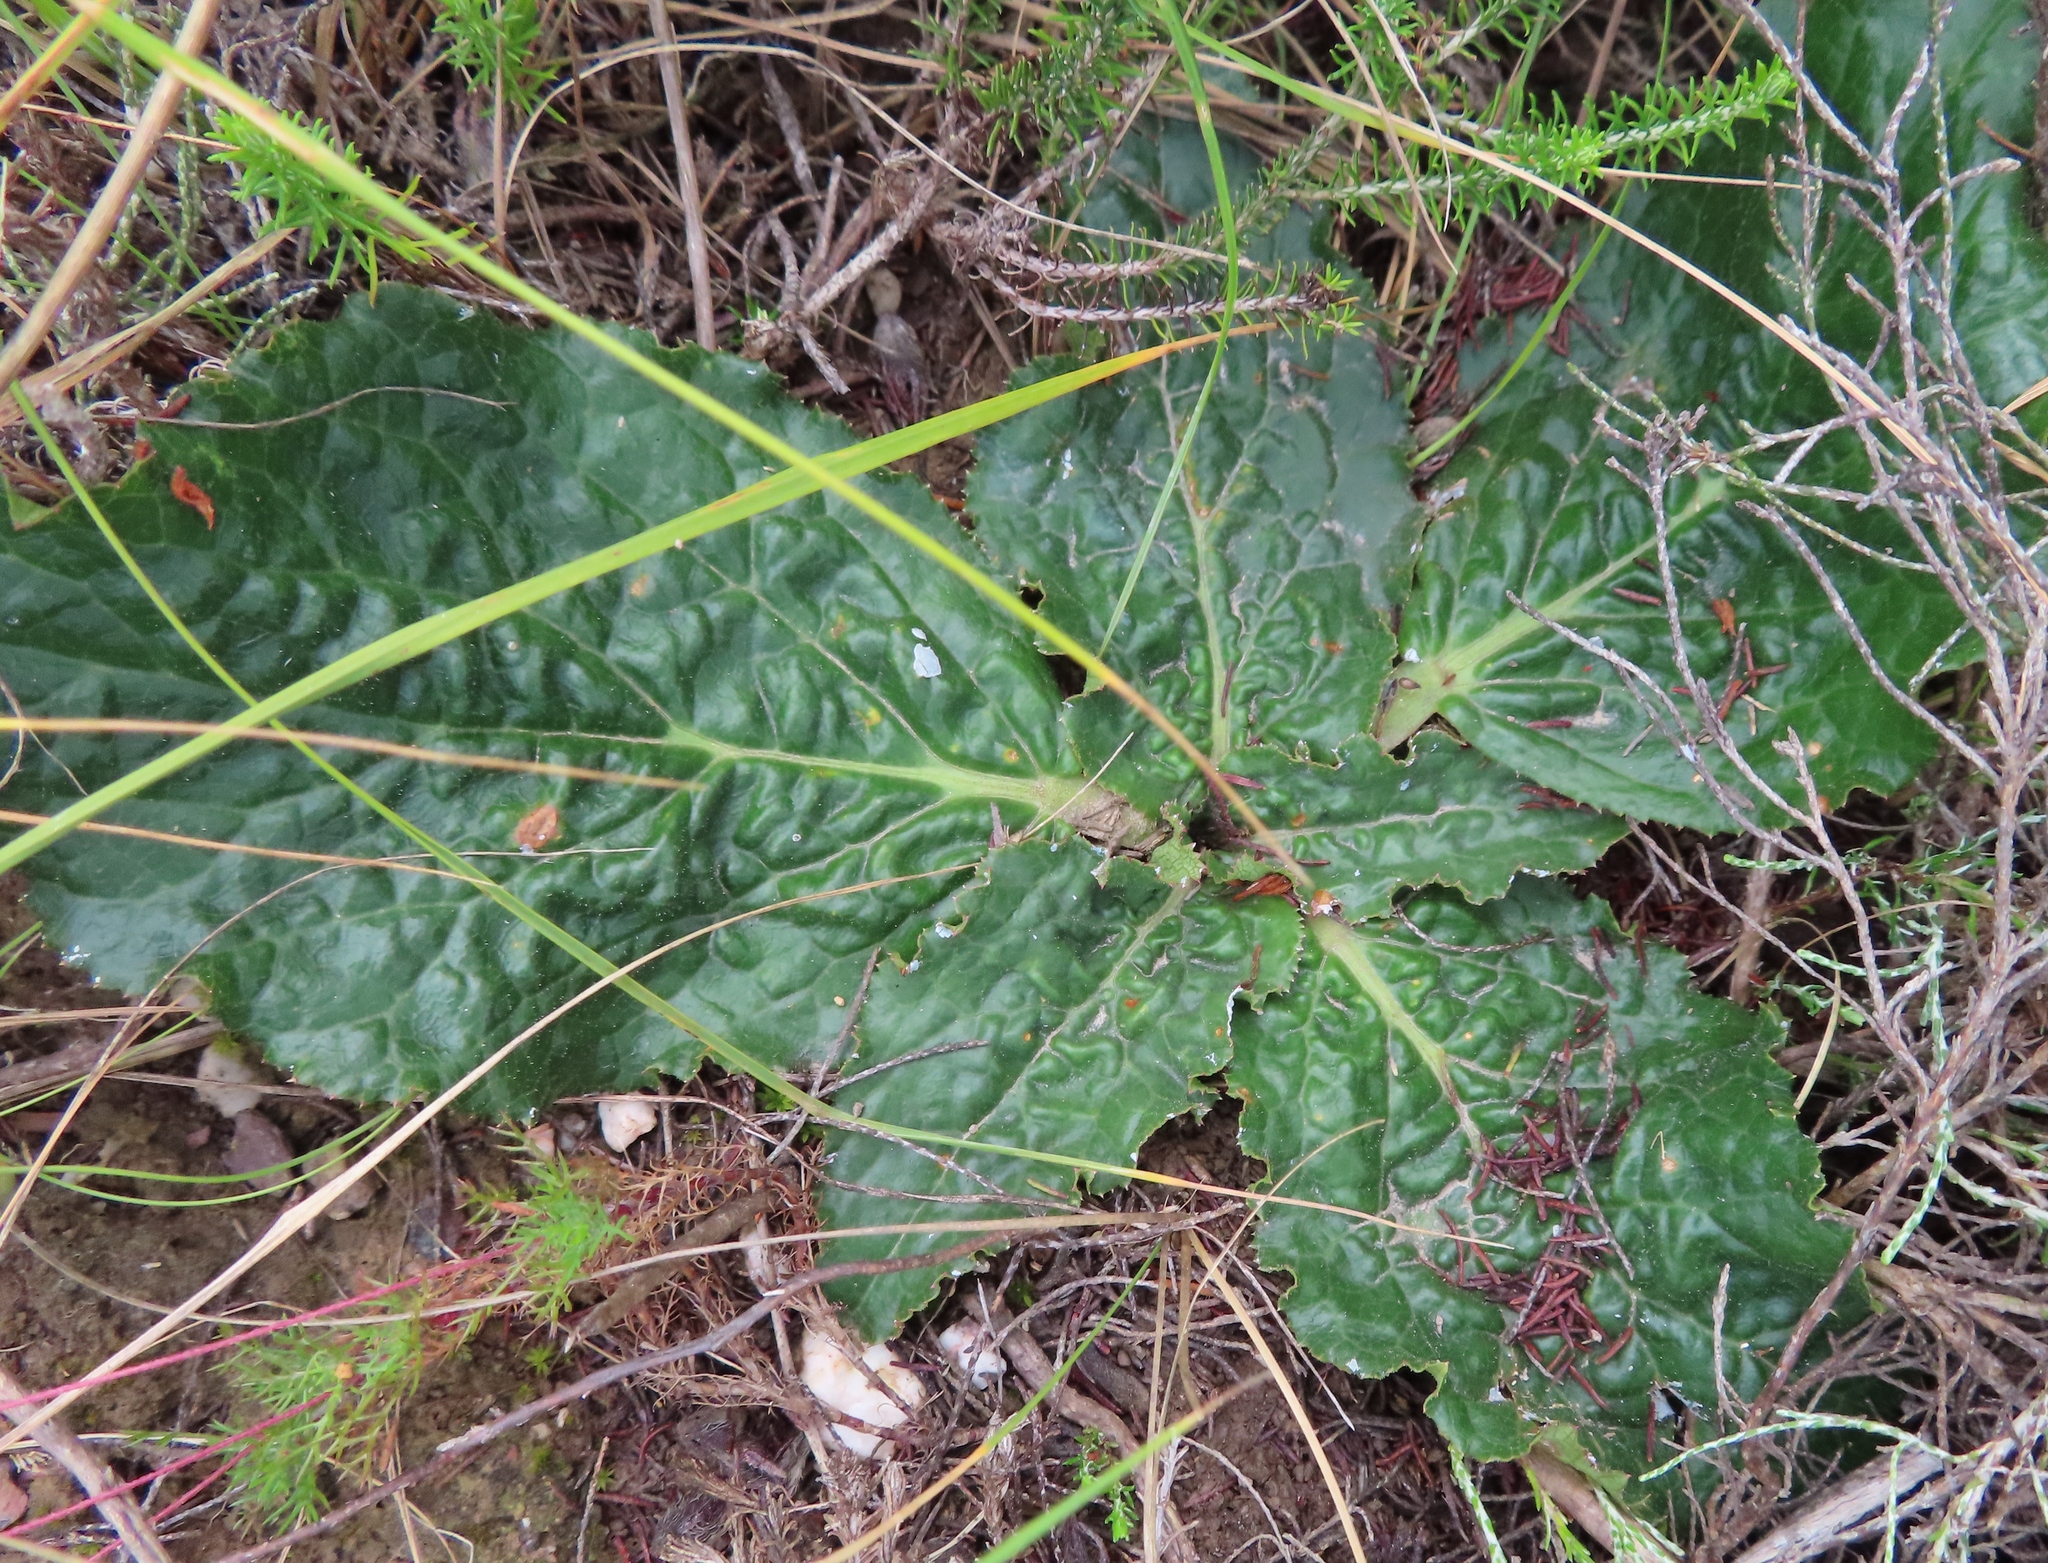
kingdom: Plantae
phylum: Tracheophyta
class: Magnoliopsida
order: Apiales
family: Apiaceae
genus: Lichtensteinia
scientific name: Lichtensteinia latifolia
